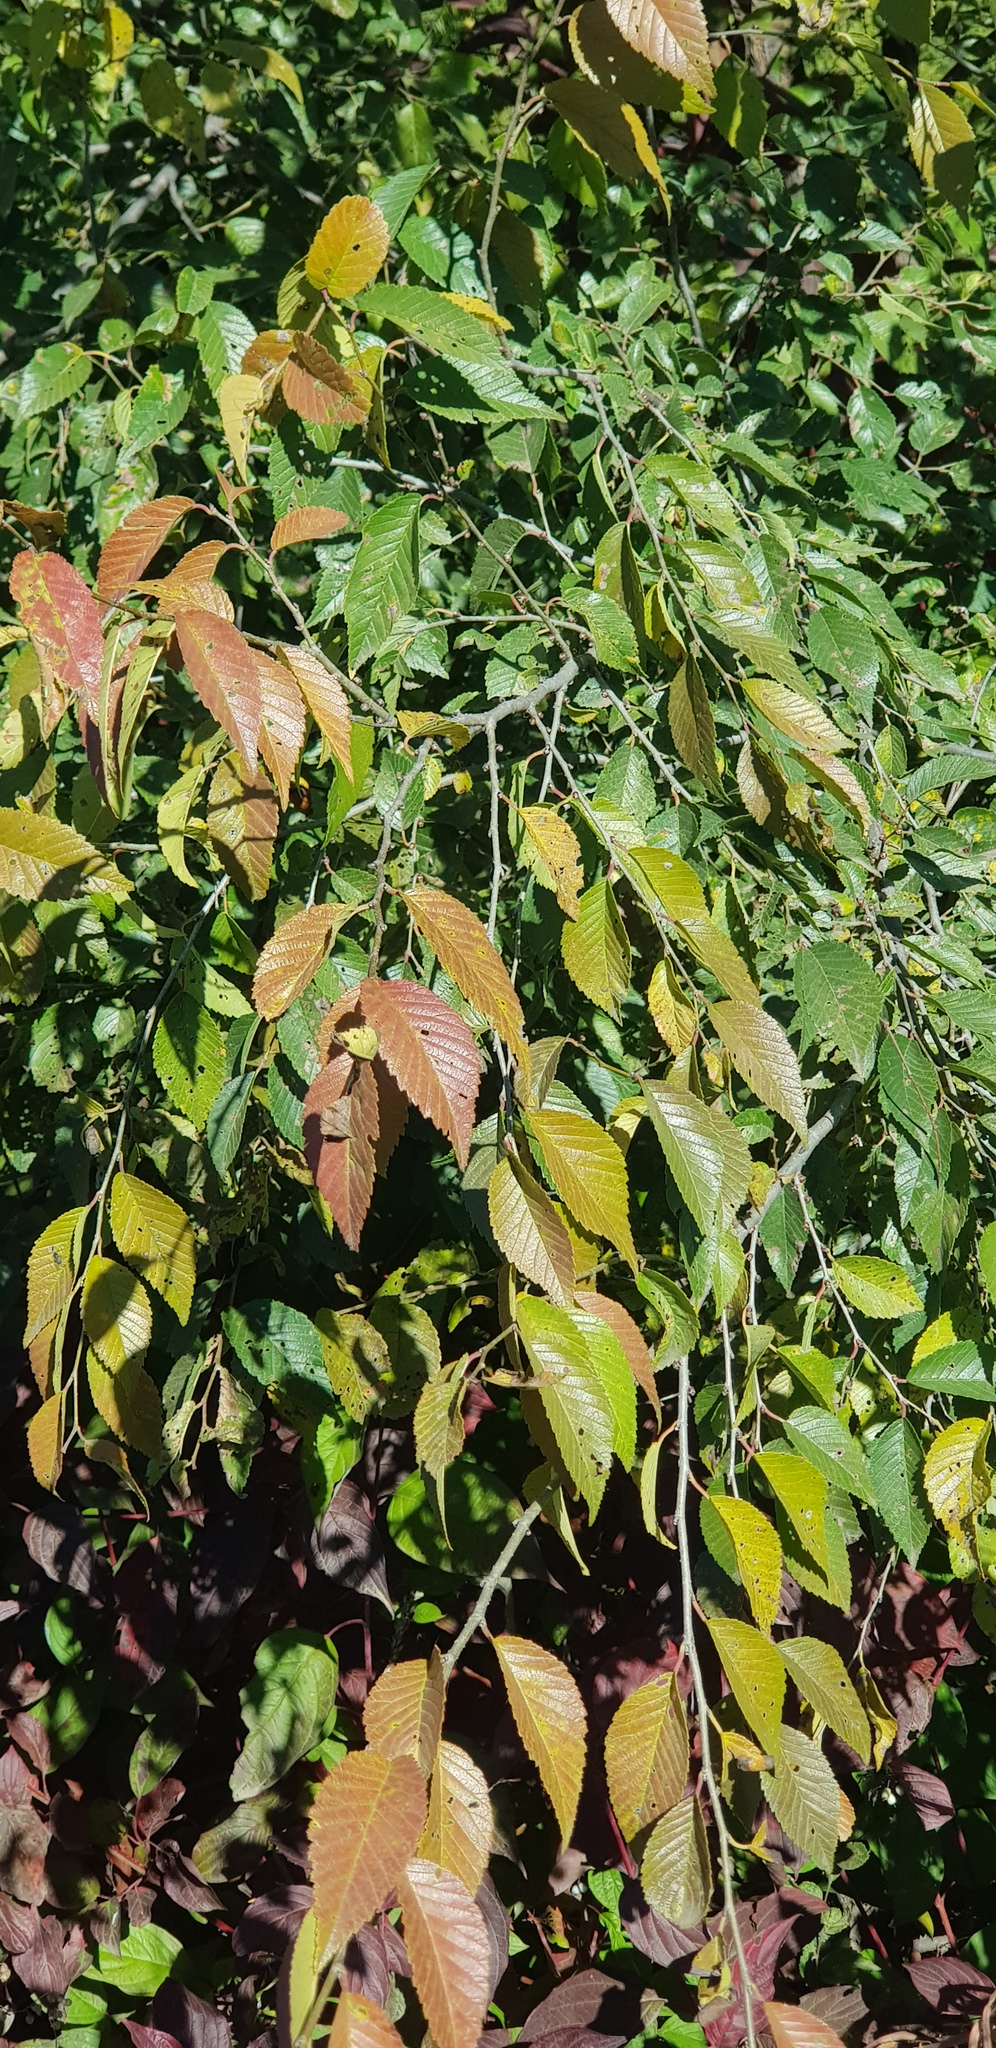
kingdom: Plantae
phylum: Tracheophyta
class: Magnoliopsida
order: Rosales
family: Ulmaceae
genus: Ulmus
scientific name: Ulmus davidiana
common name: Japanese elm
